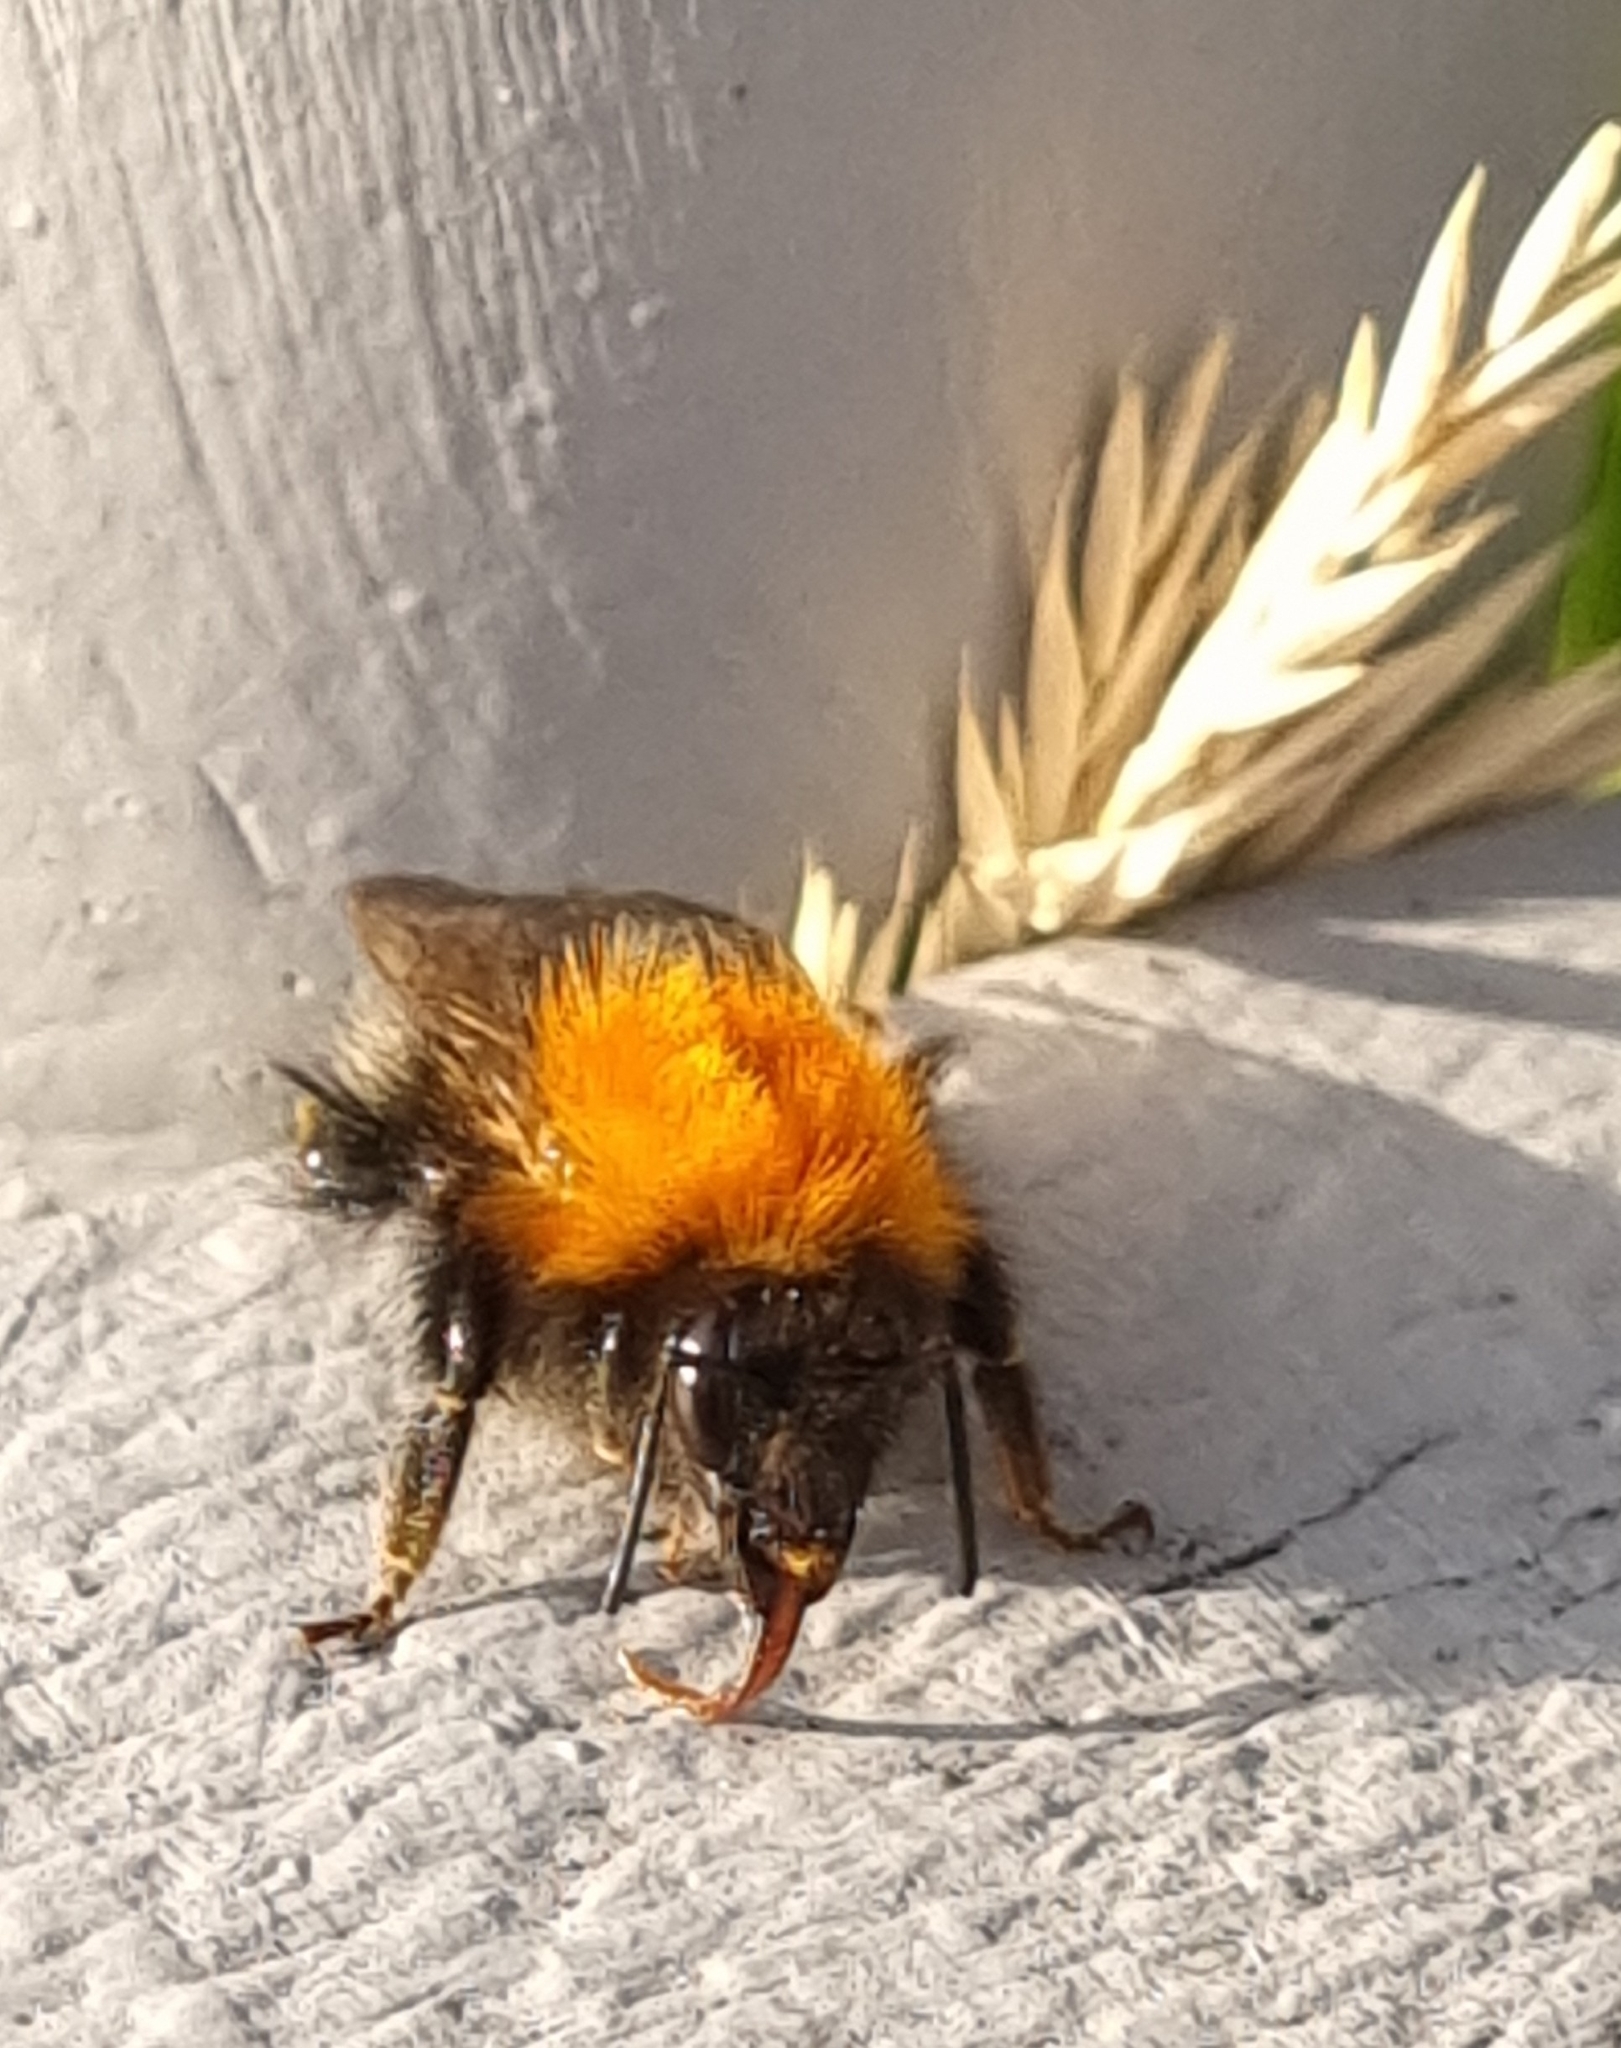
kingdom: Animalia
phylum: Arthropoda
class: Insecta
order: Hymenoptera
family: Apidae
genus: Bombus
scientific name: Bombus hypnorum
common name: New garden bumblebee
